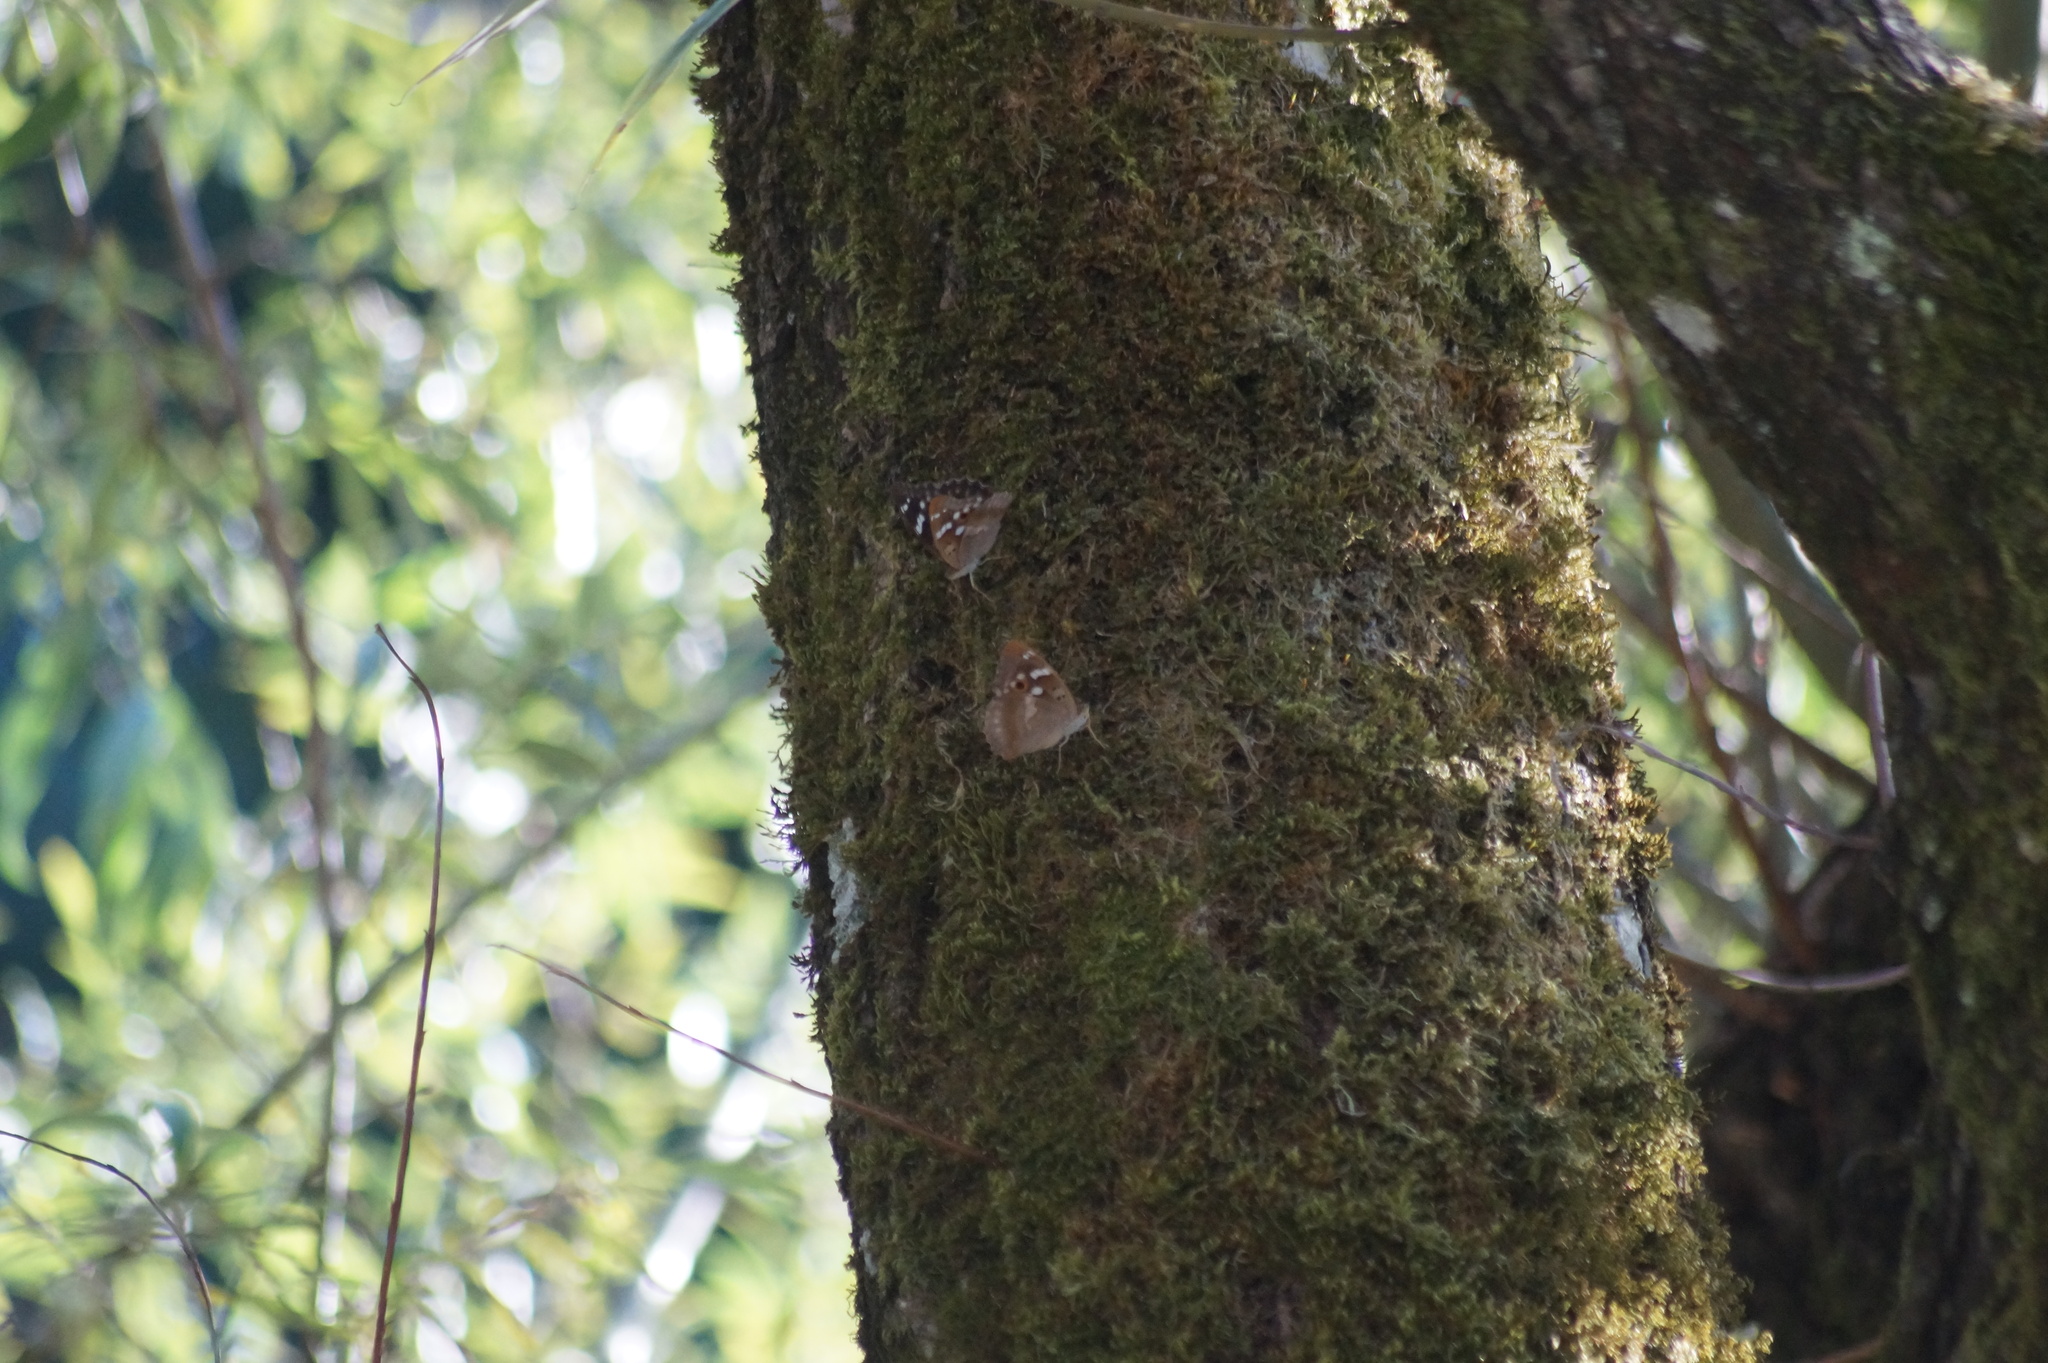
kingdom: Animalia
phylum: Arthropoda
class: Insecta
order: Lepidoptera
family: Nymphalidae
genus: Apatura
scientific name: Apatura ilia
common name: Lesser purple emperor
